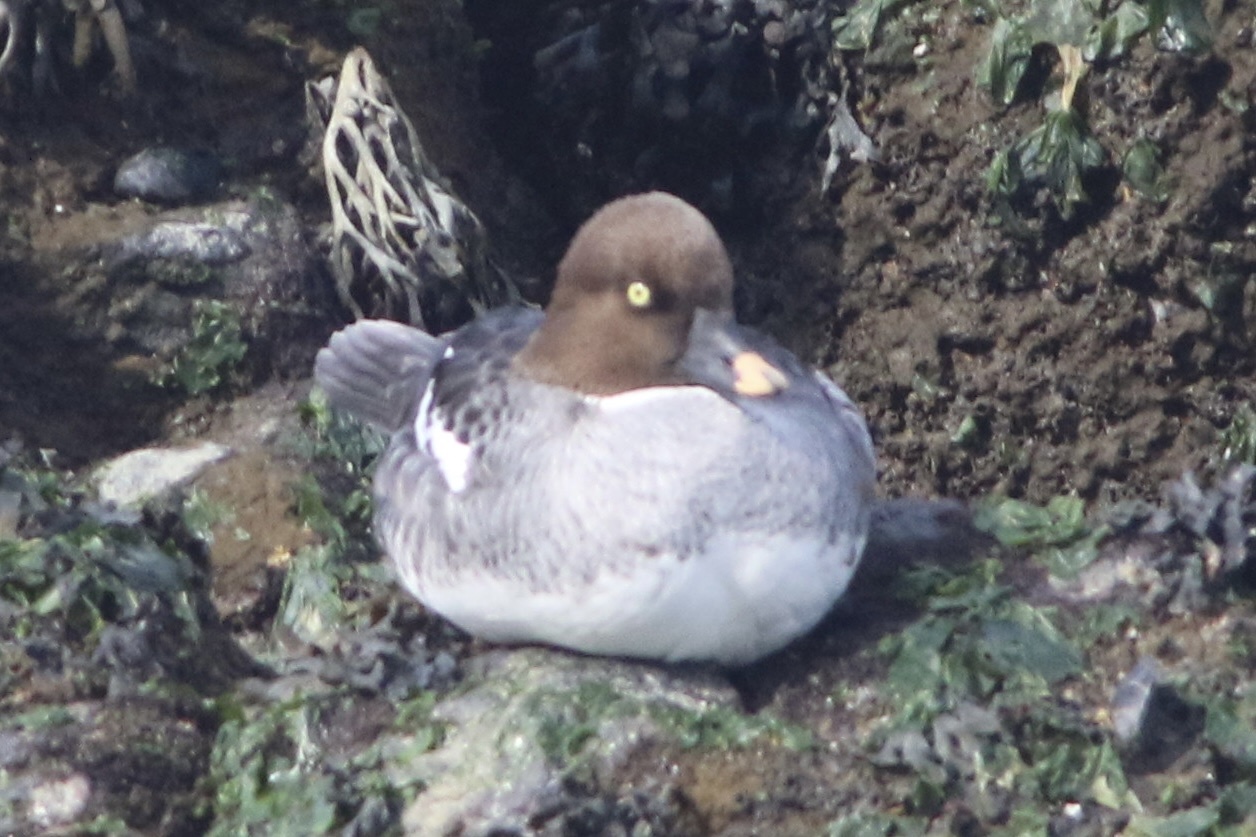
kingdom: Animalia
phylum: Chordata
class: Aves
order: Anseriformes
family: Anatidae
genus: Bucephala
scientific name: Bucephala clangula
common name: Common goldeneye
